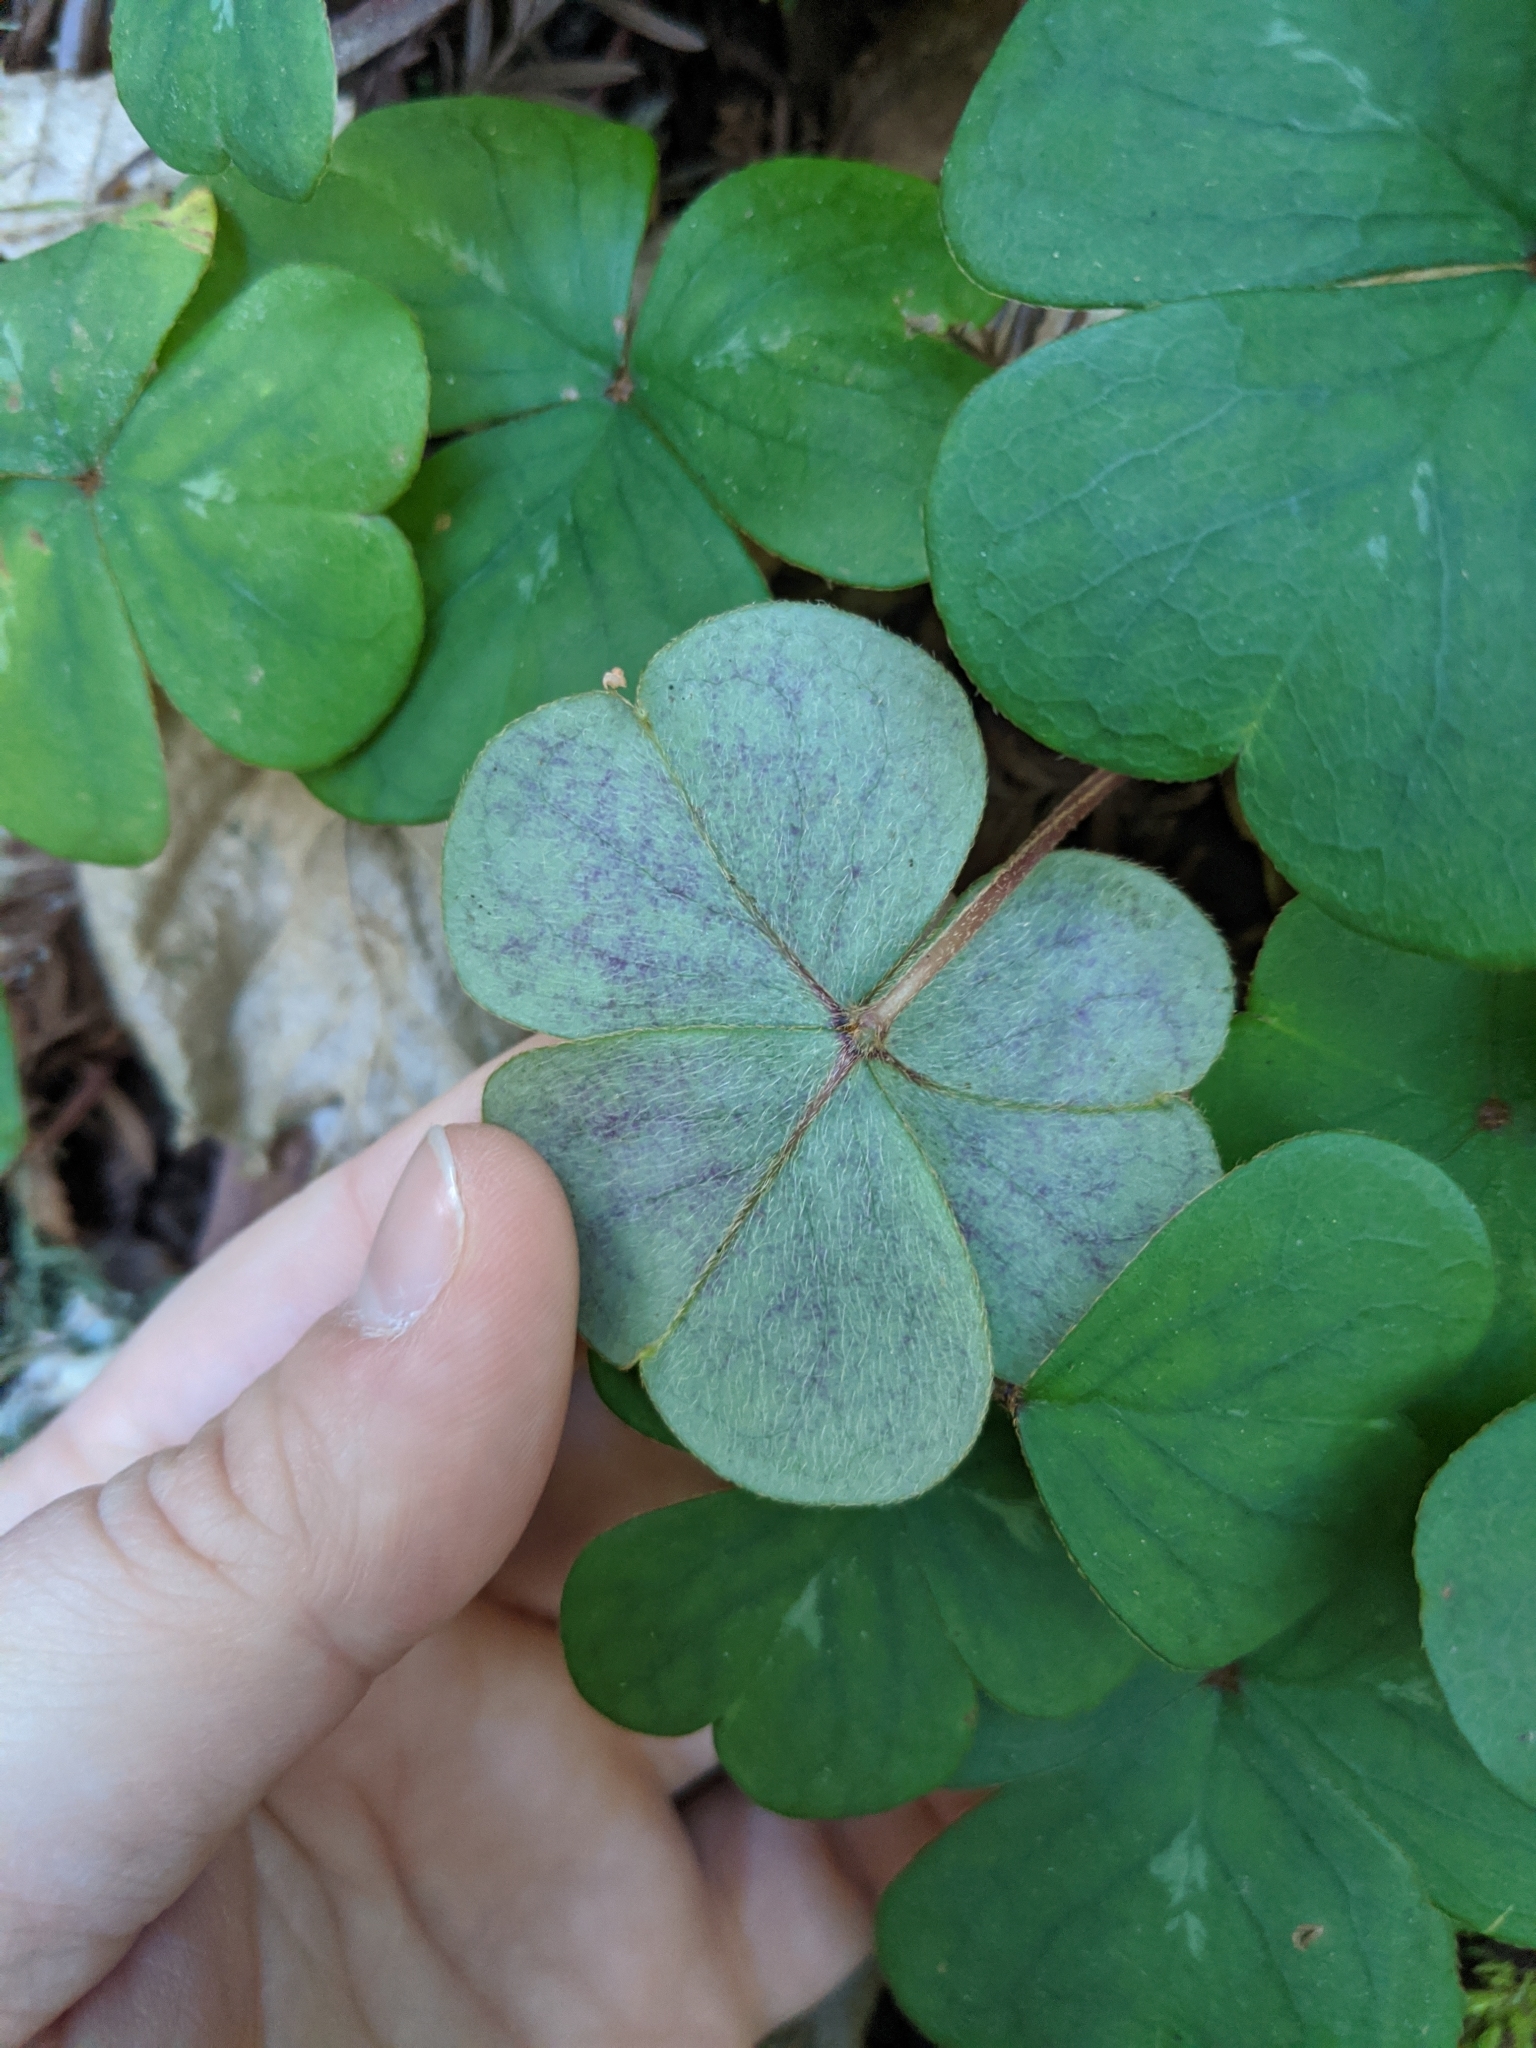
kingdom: Plantae
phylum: Tracheophyta
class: Magnoliopsida
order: Oxalidales
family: Oxalidaceae
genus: Oxalis
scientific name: Oxalis oregana
